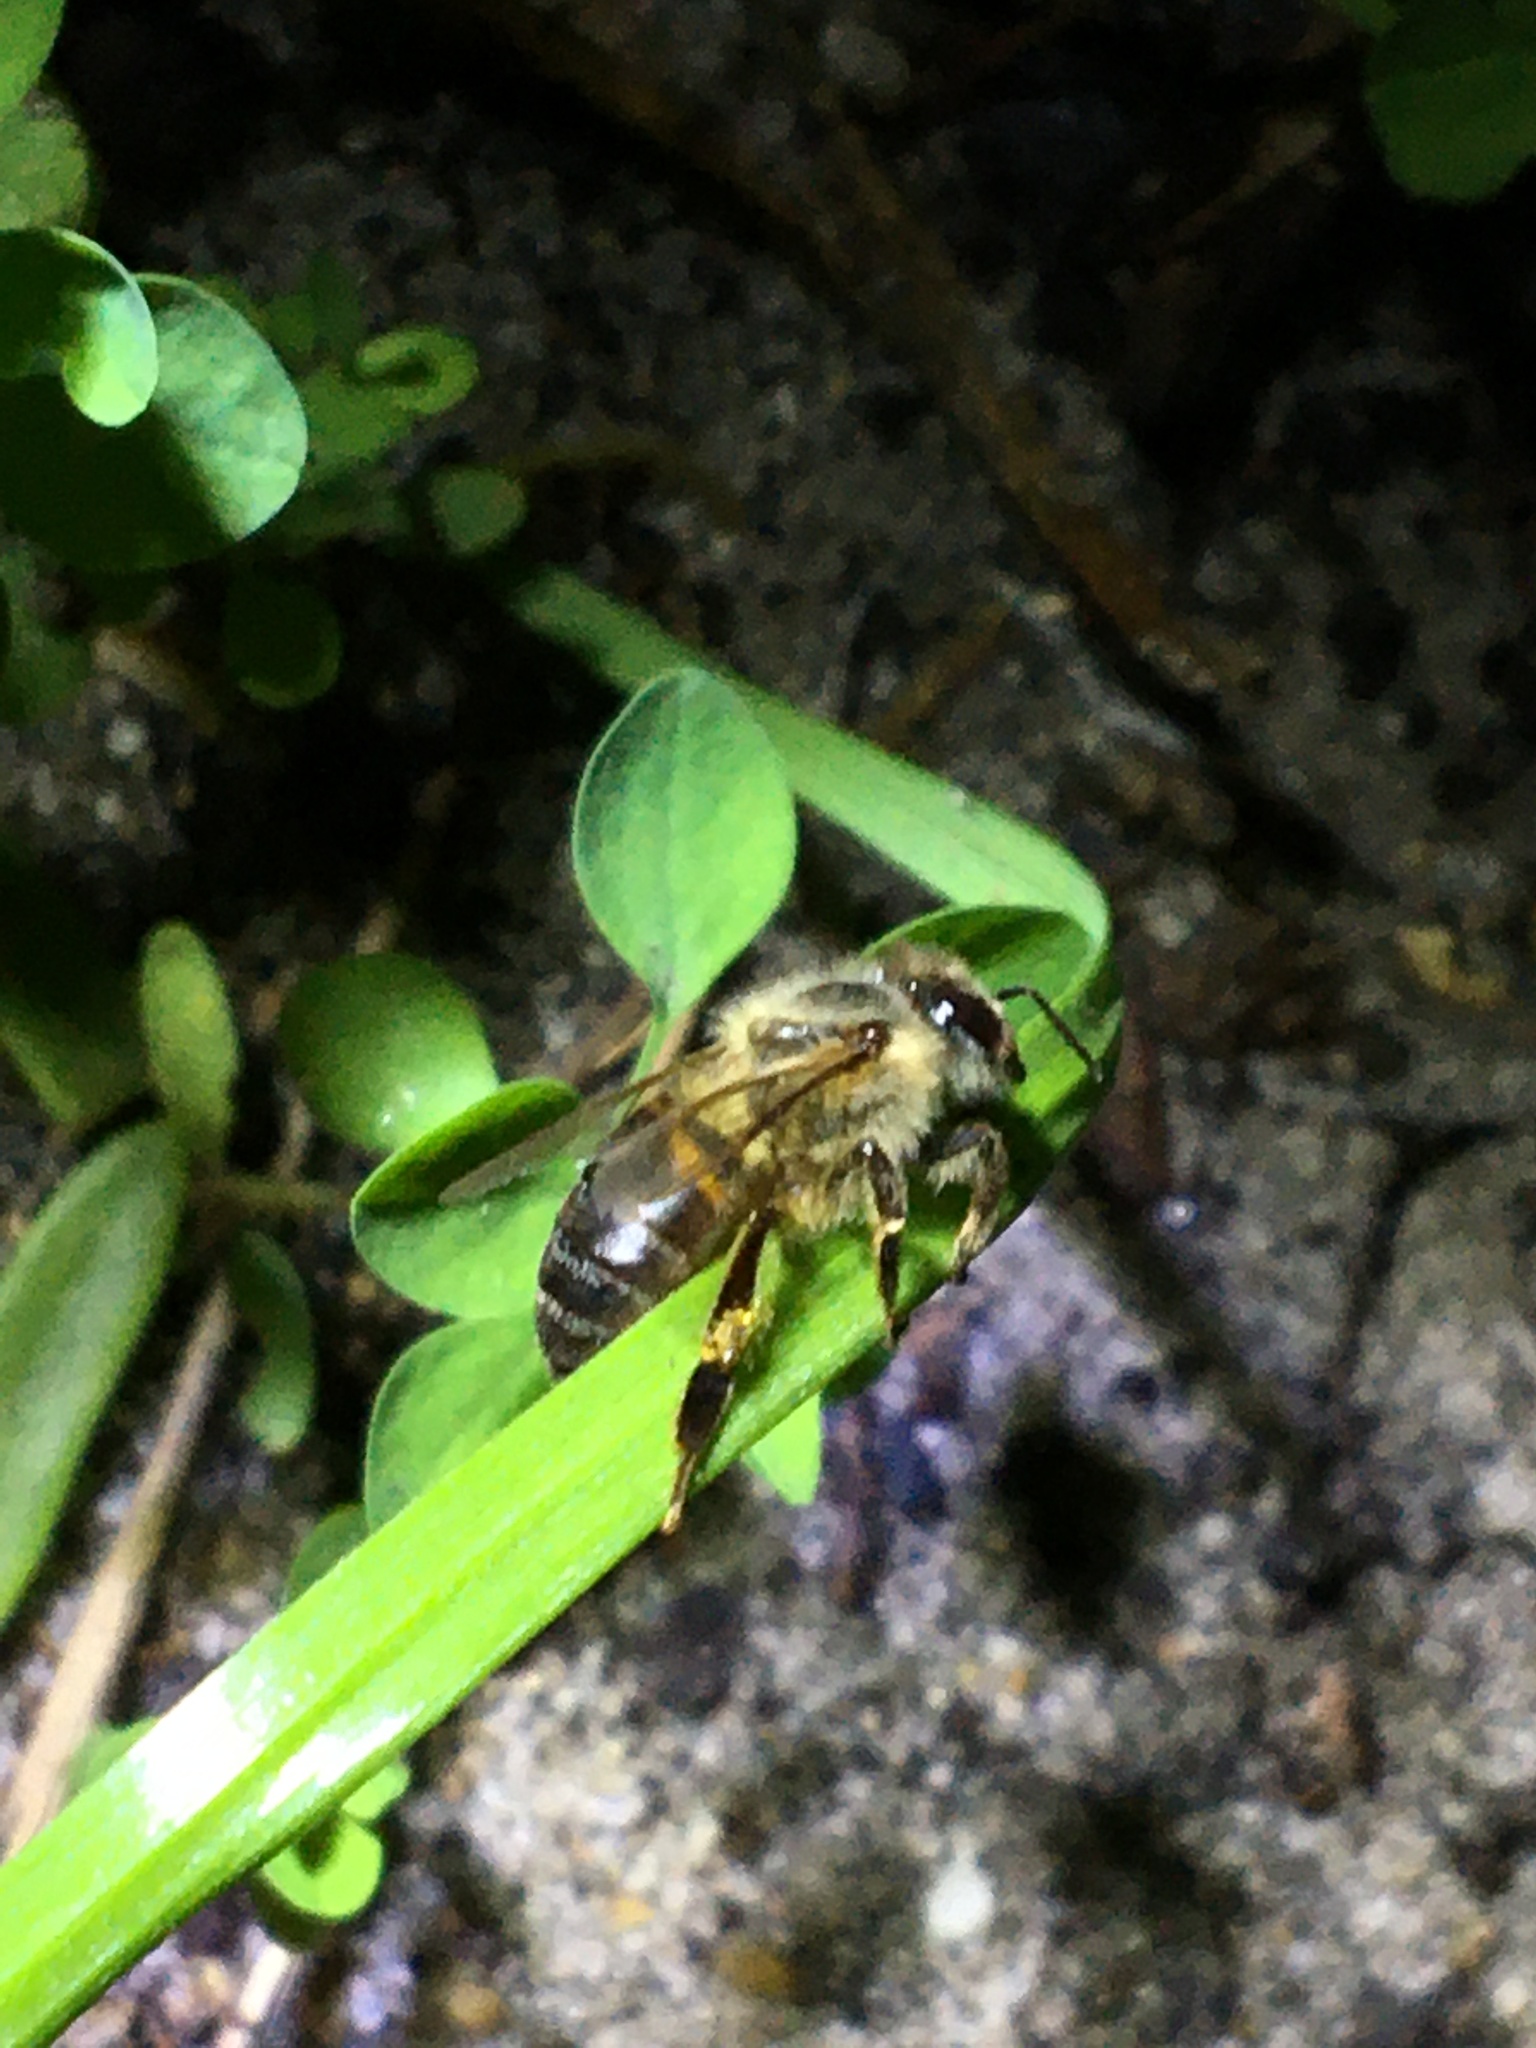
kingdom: Animalia
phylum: Arthropoda
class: Insecta
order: Hymenoptera
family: Apidae
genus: Apis
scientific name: Apis mellifera
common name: Honey bee
